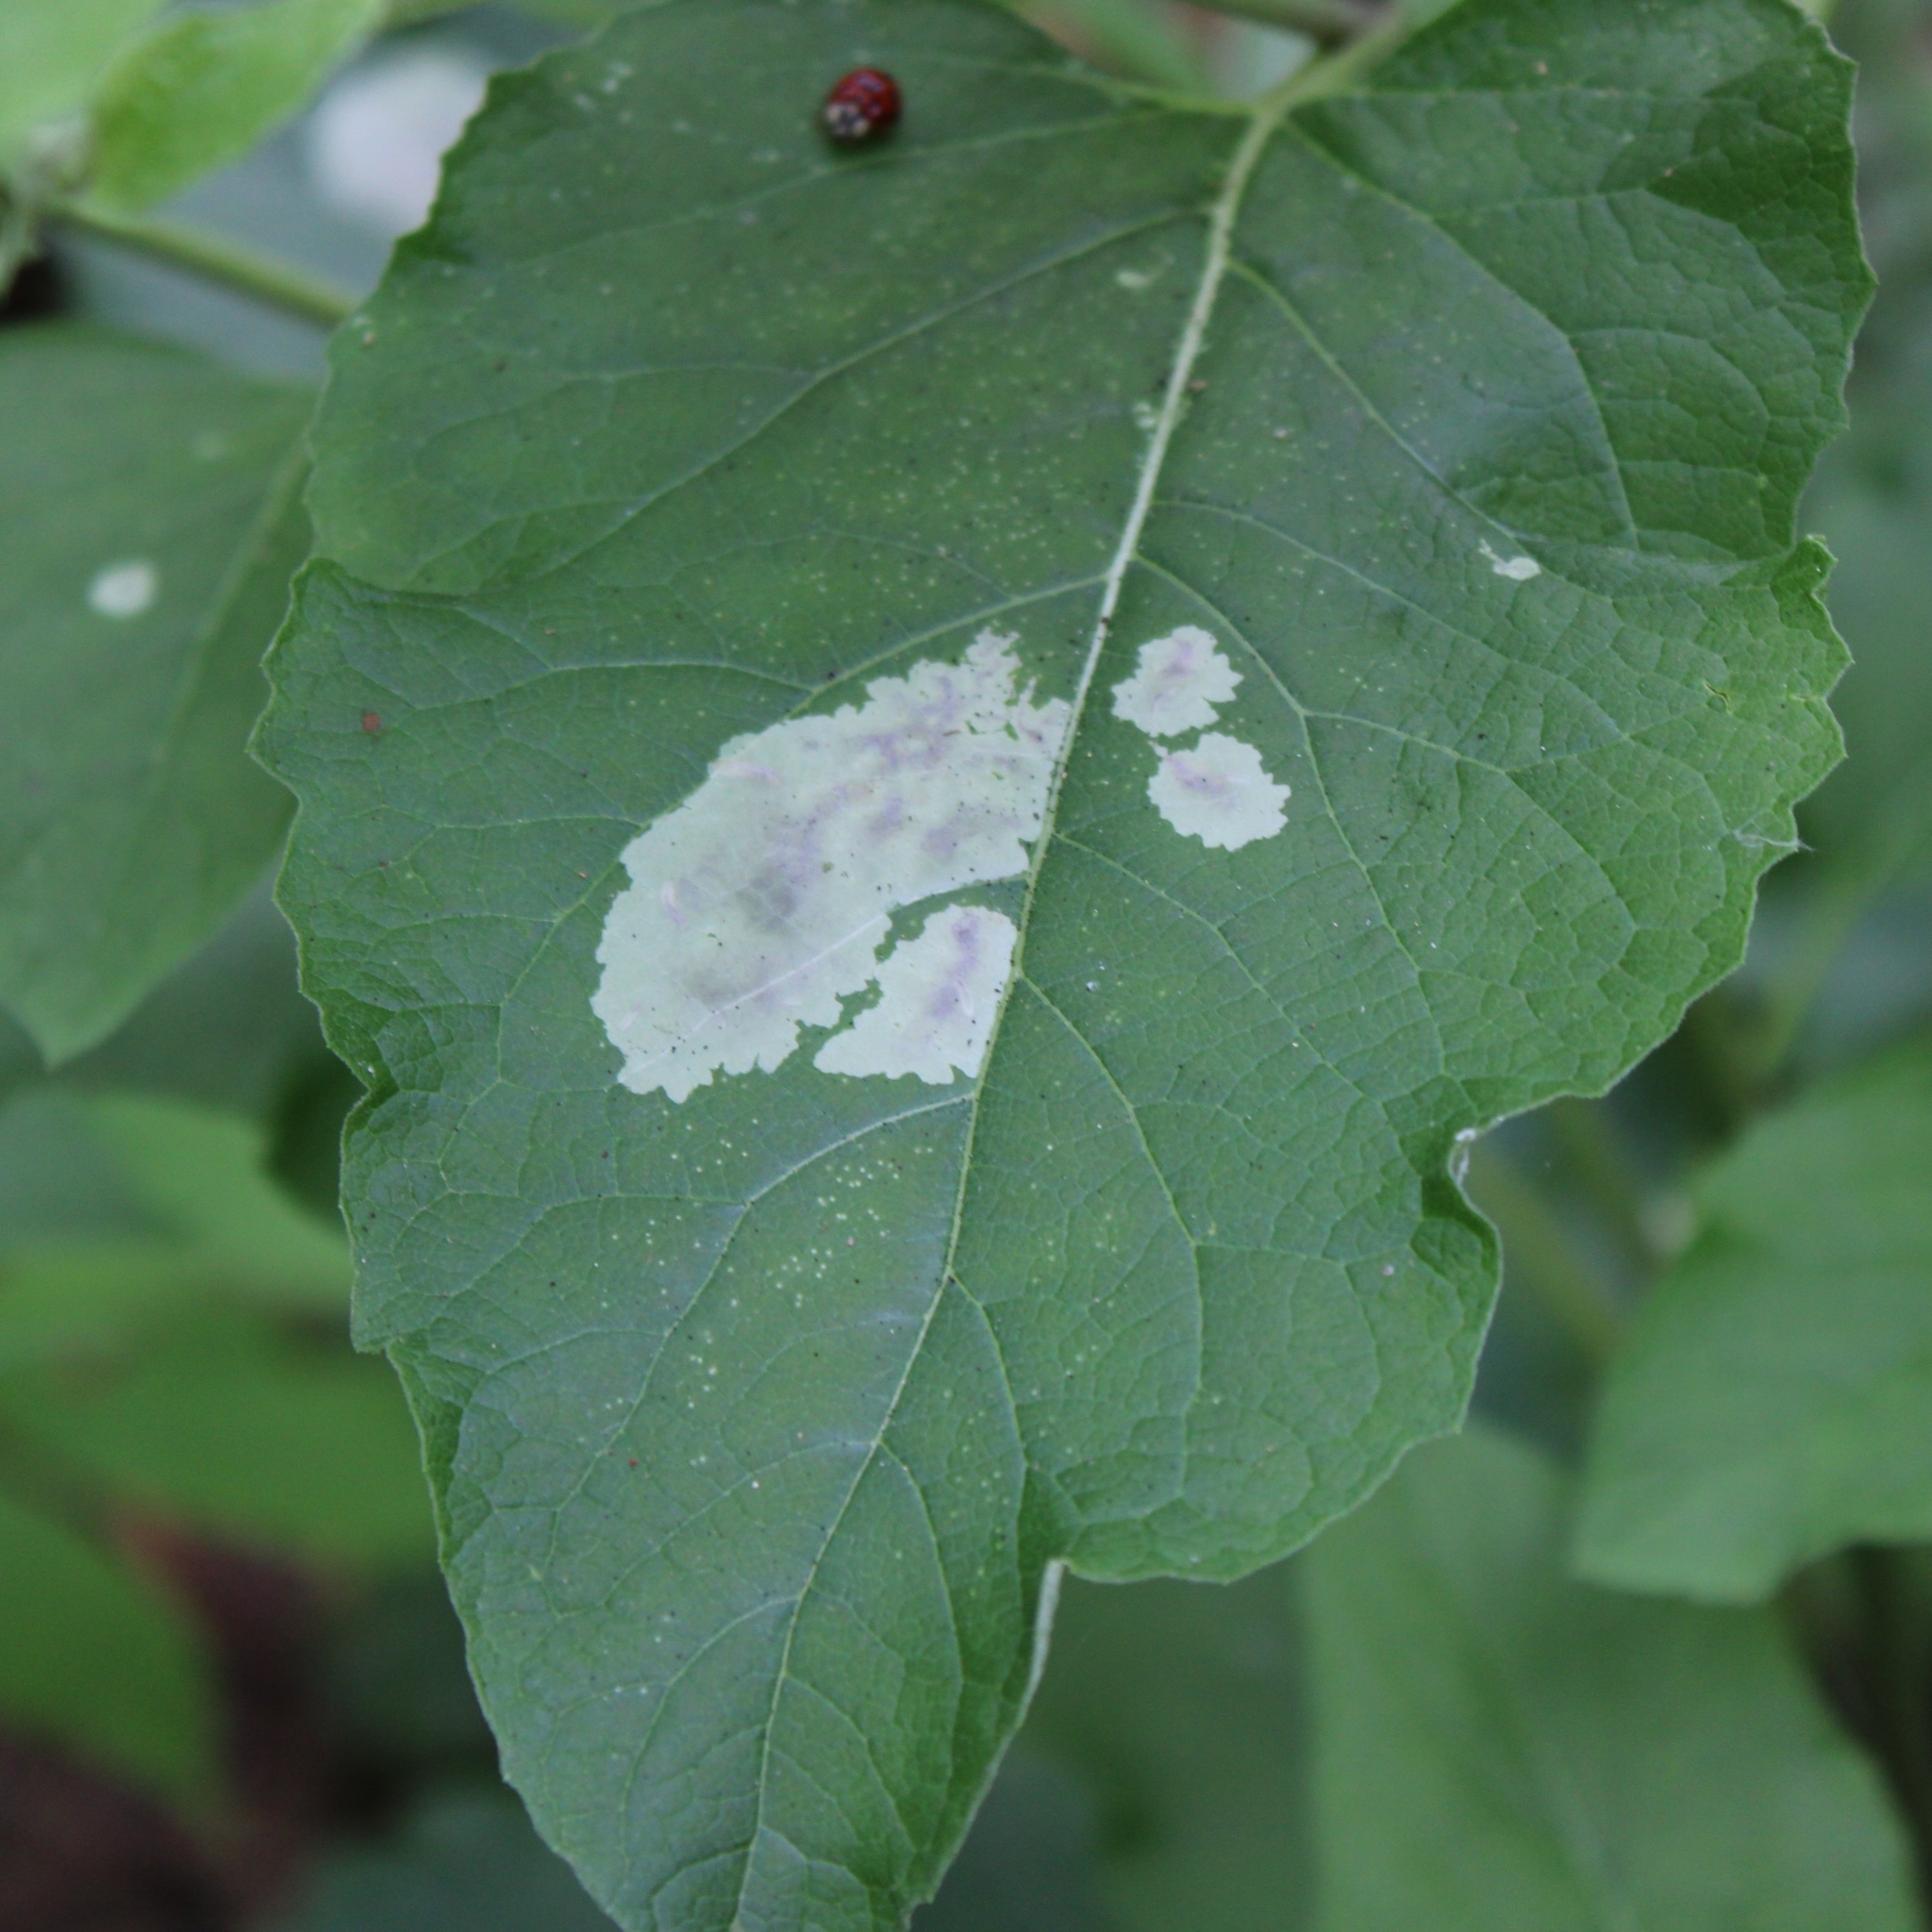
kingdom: Animalia
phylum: Arthropoda
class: Insecta
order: Diptera
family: Agromyzidae
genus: Calycomyza
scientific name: Calycomyza flavinotum
